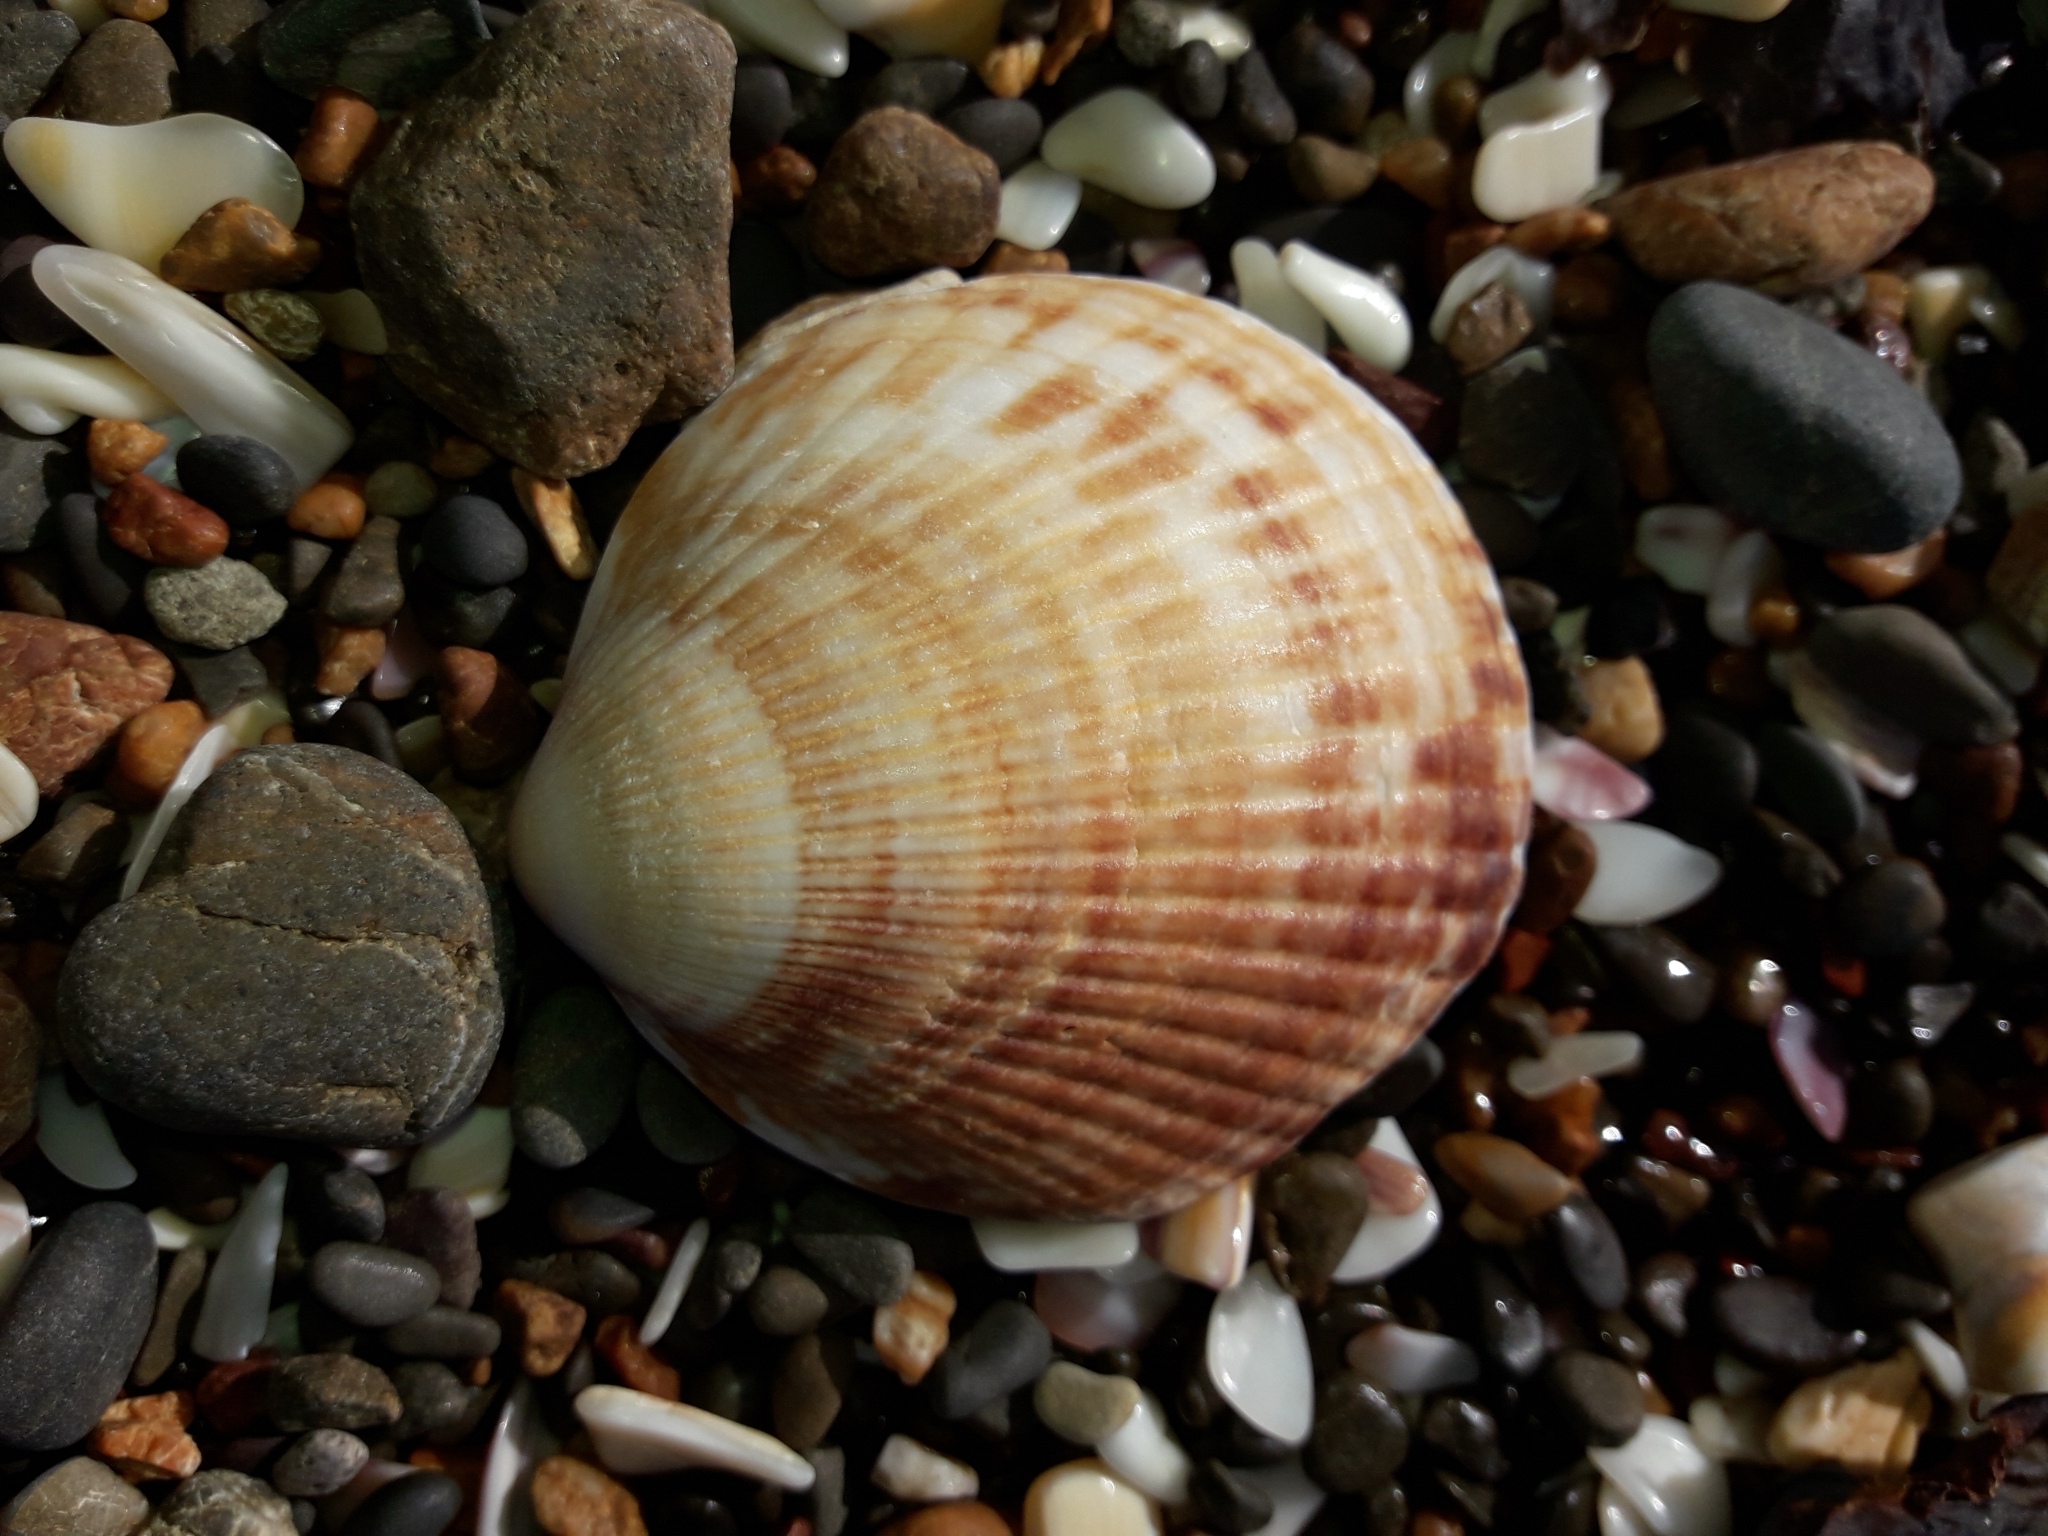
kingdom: Animalia
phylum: Mollusca
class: Bivalvia
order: Arcida
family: Glycymerididae
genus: Tucetona
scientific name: Tucetona laticostata
